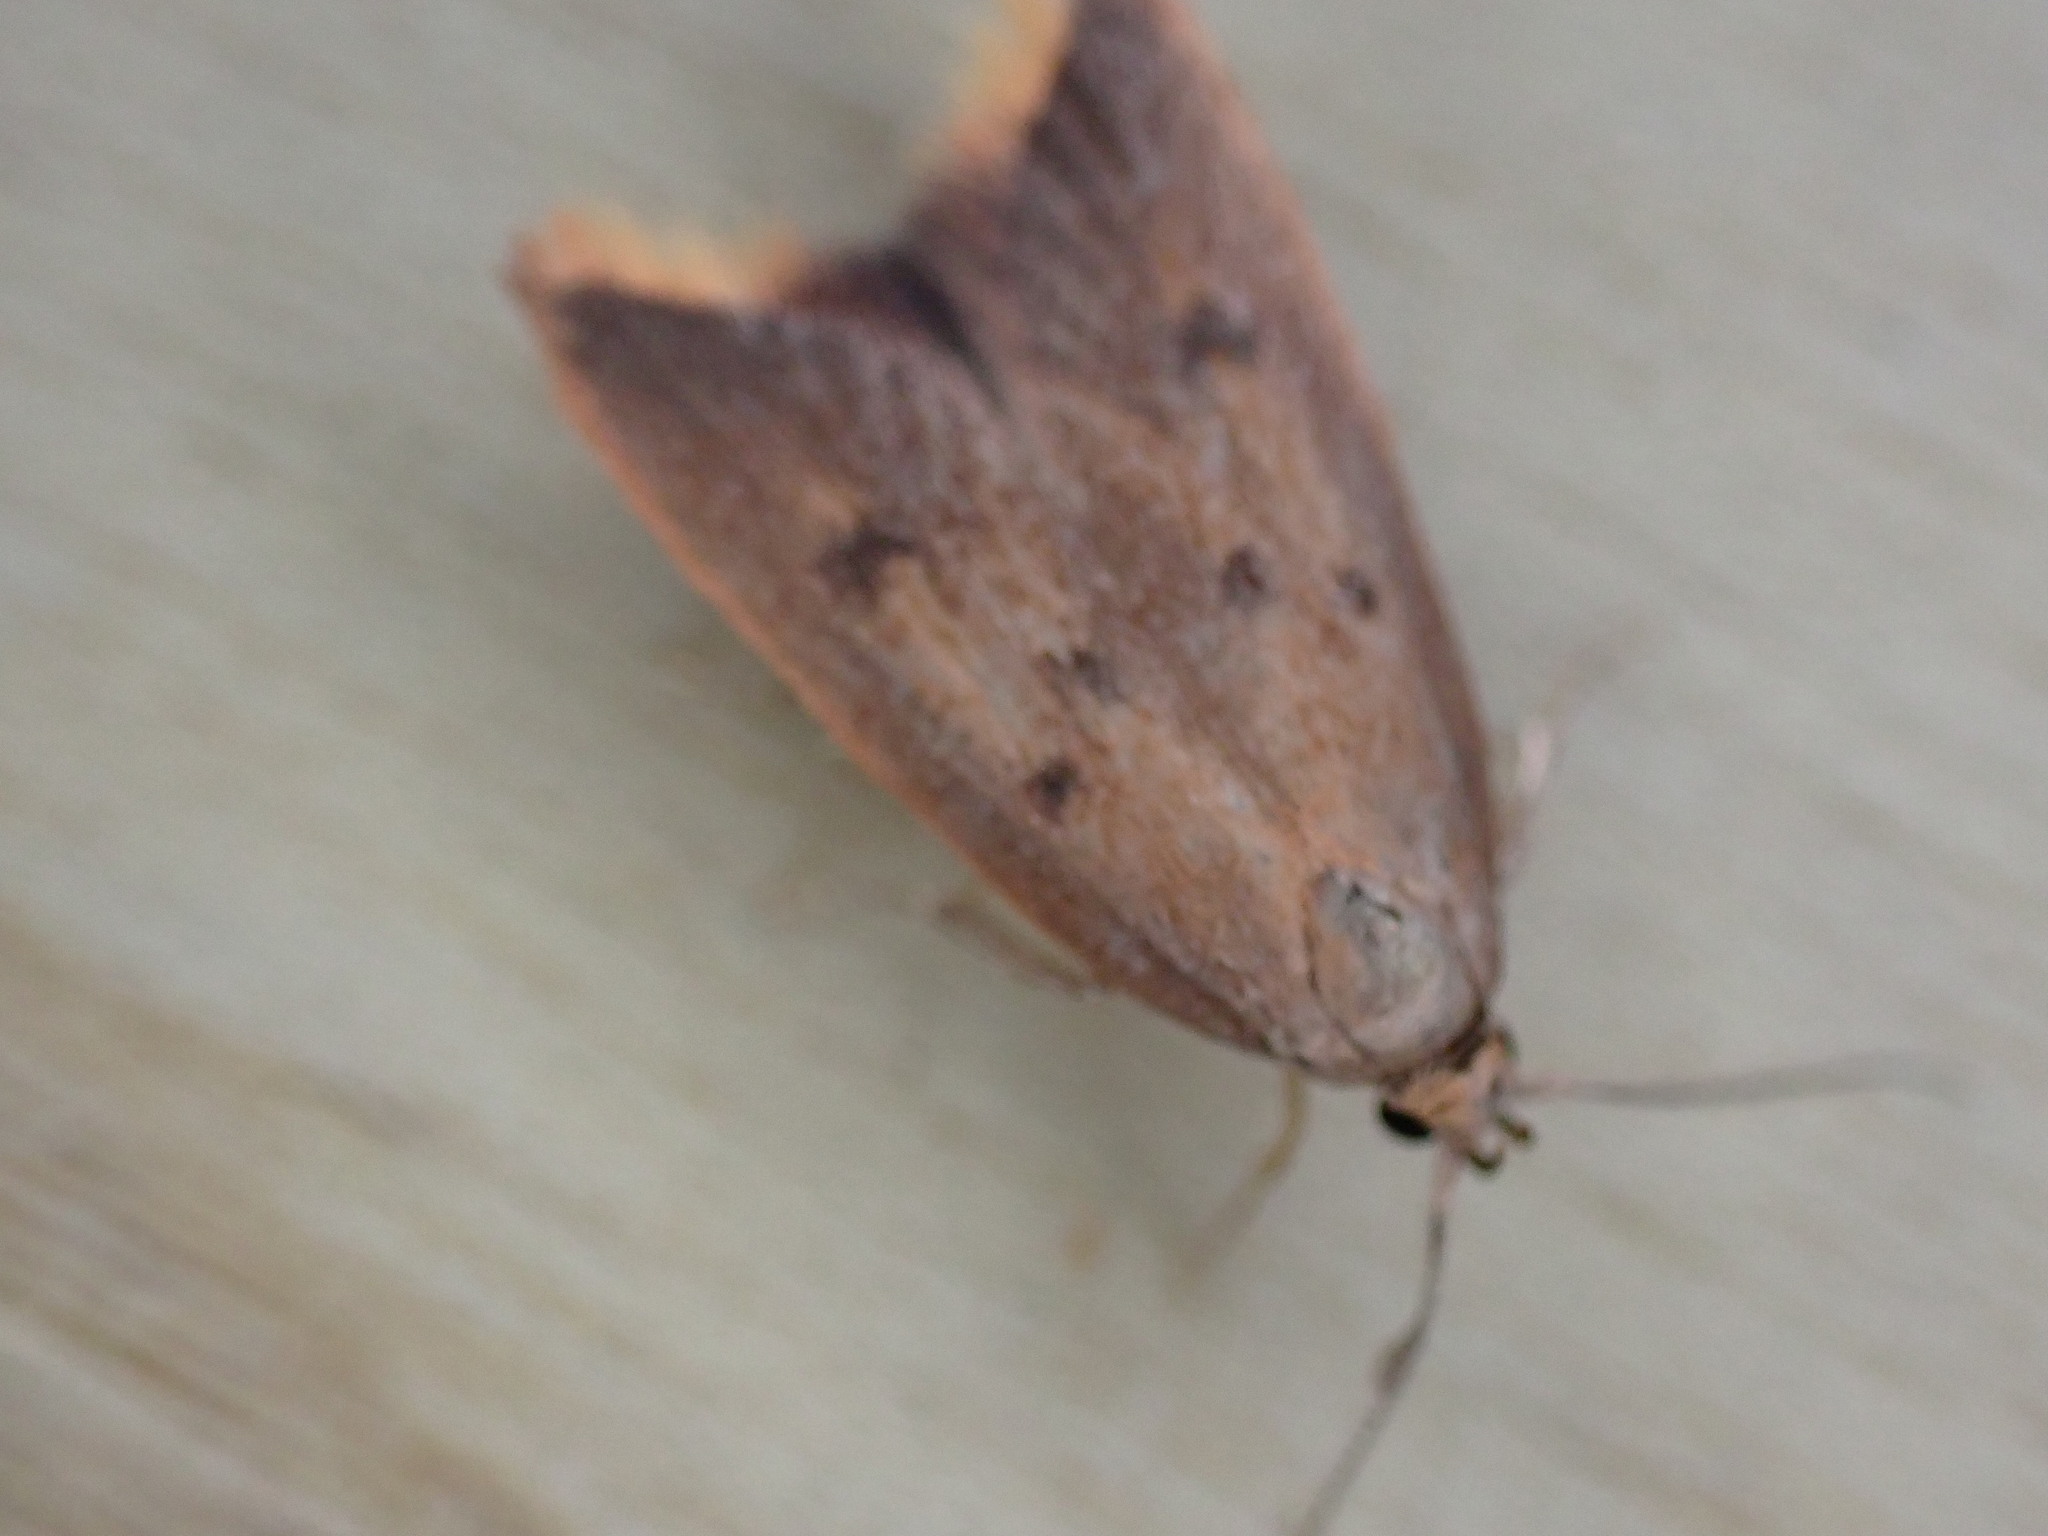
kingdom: Animalia
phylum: Arthropoda
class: Insecta
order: Lepidoptera
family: Oecophoridae
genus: Tachystola
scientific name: Tachystola acroxantha
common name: Ruddy streak
